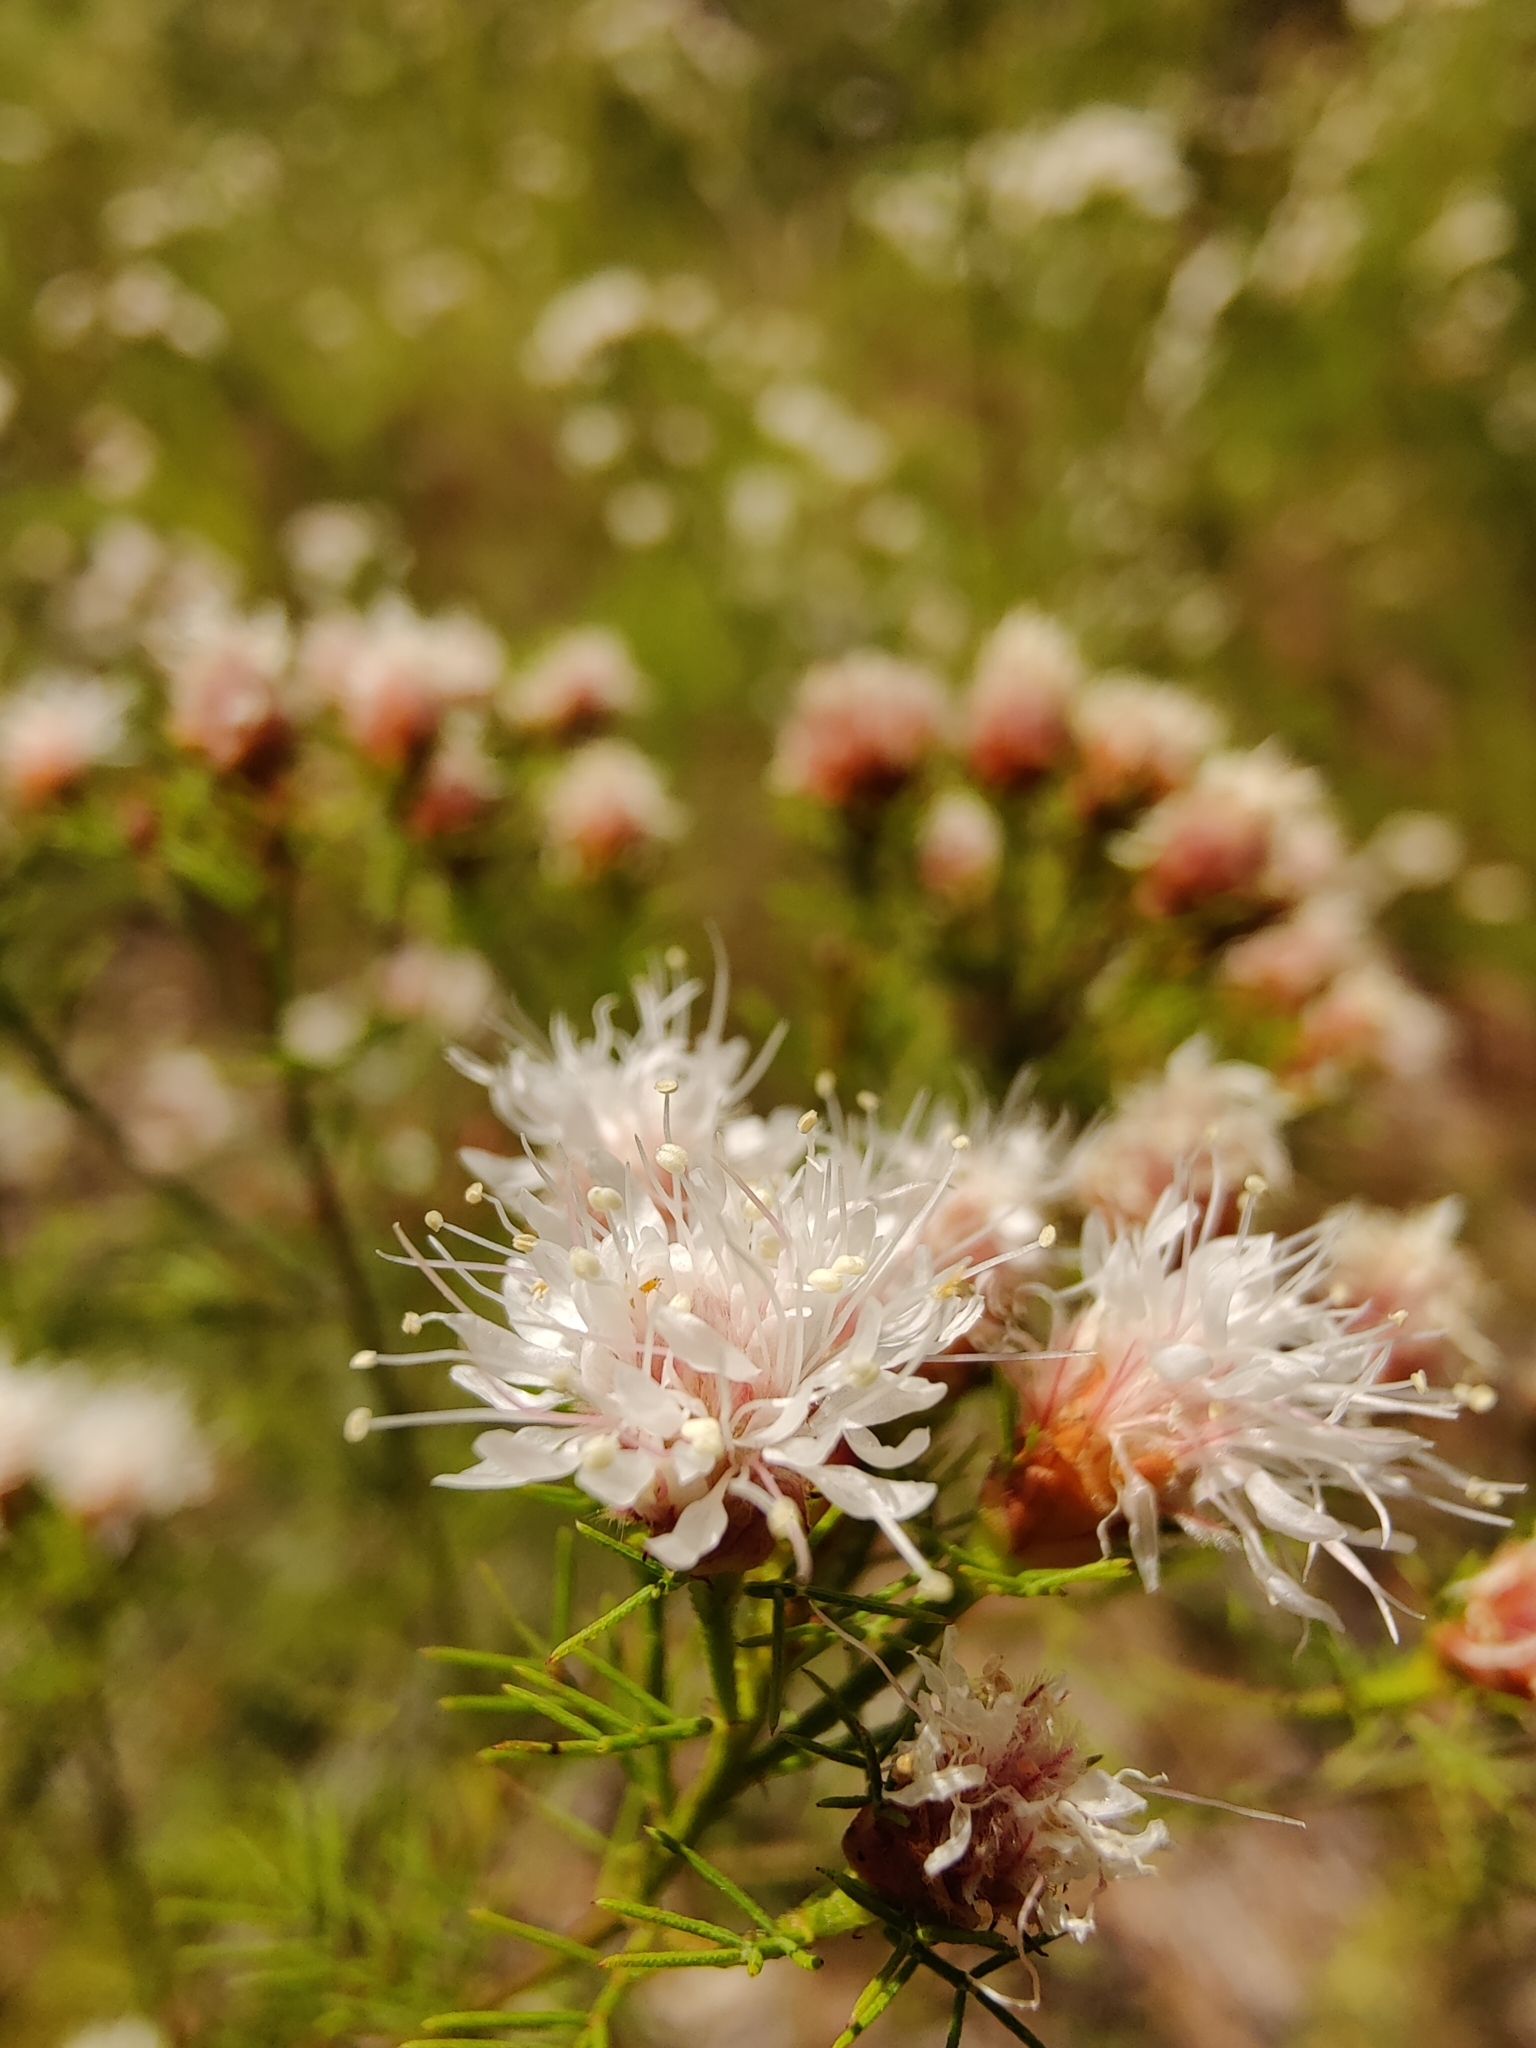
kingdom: Plantae
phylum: Tracheophyta
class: Magnoliopsida
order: Fabales
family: Fabaceae
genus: Dalea
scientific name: Dalea pinnata
